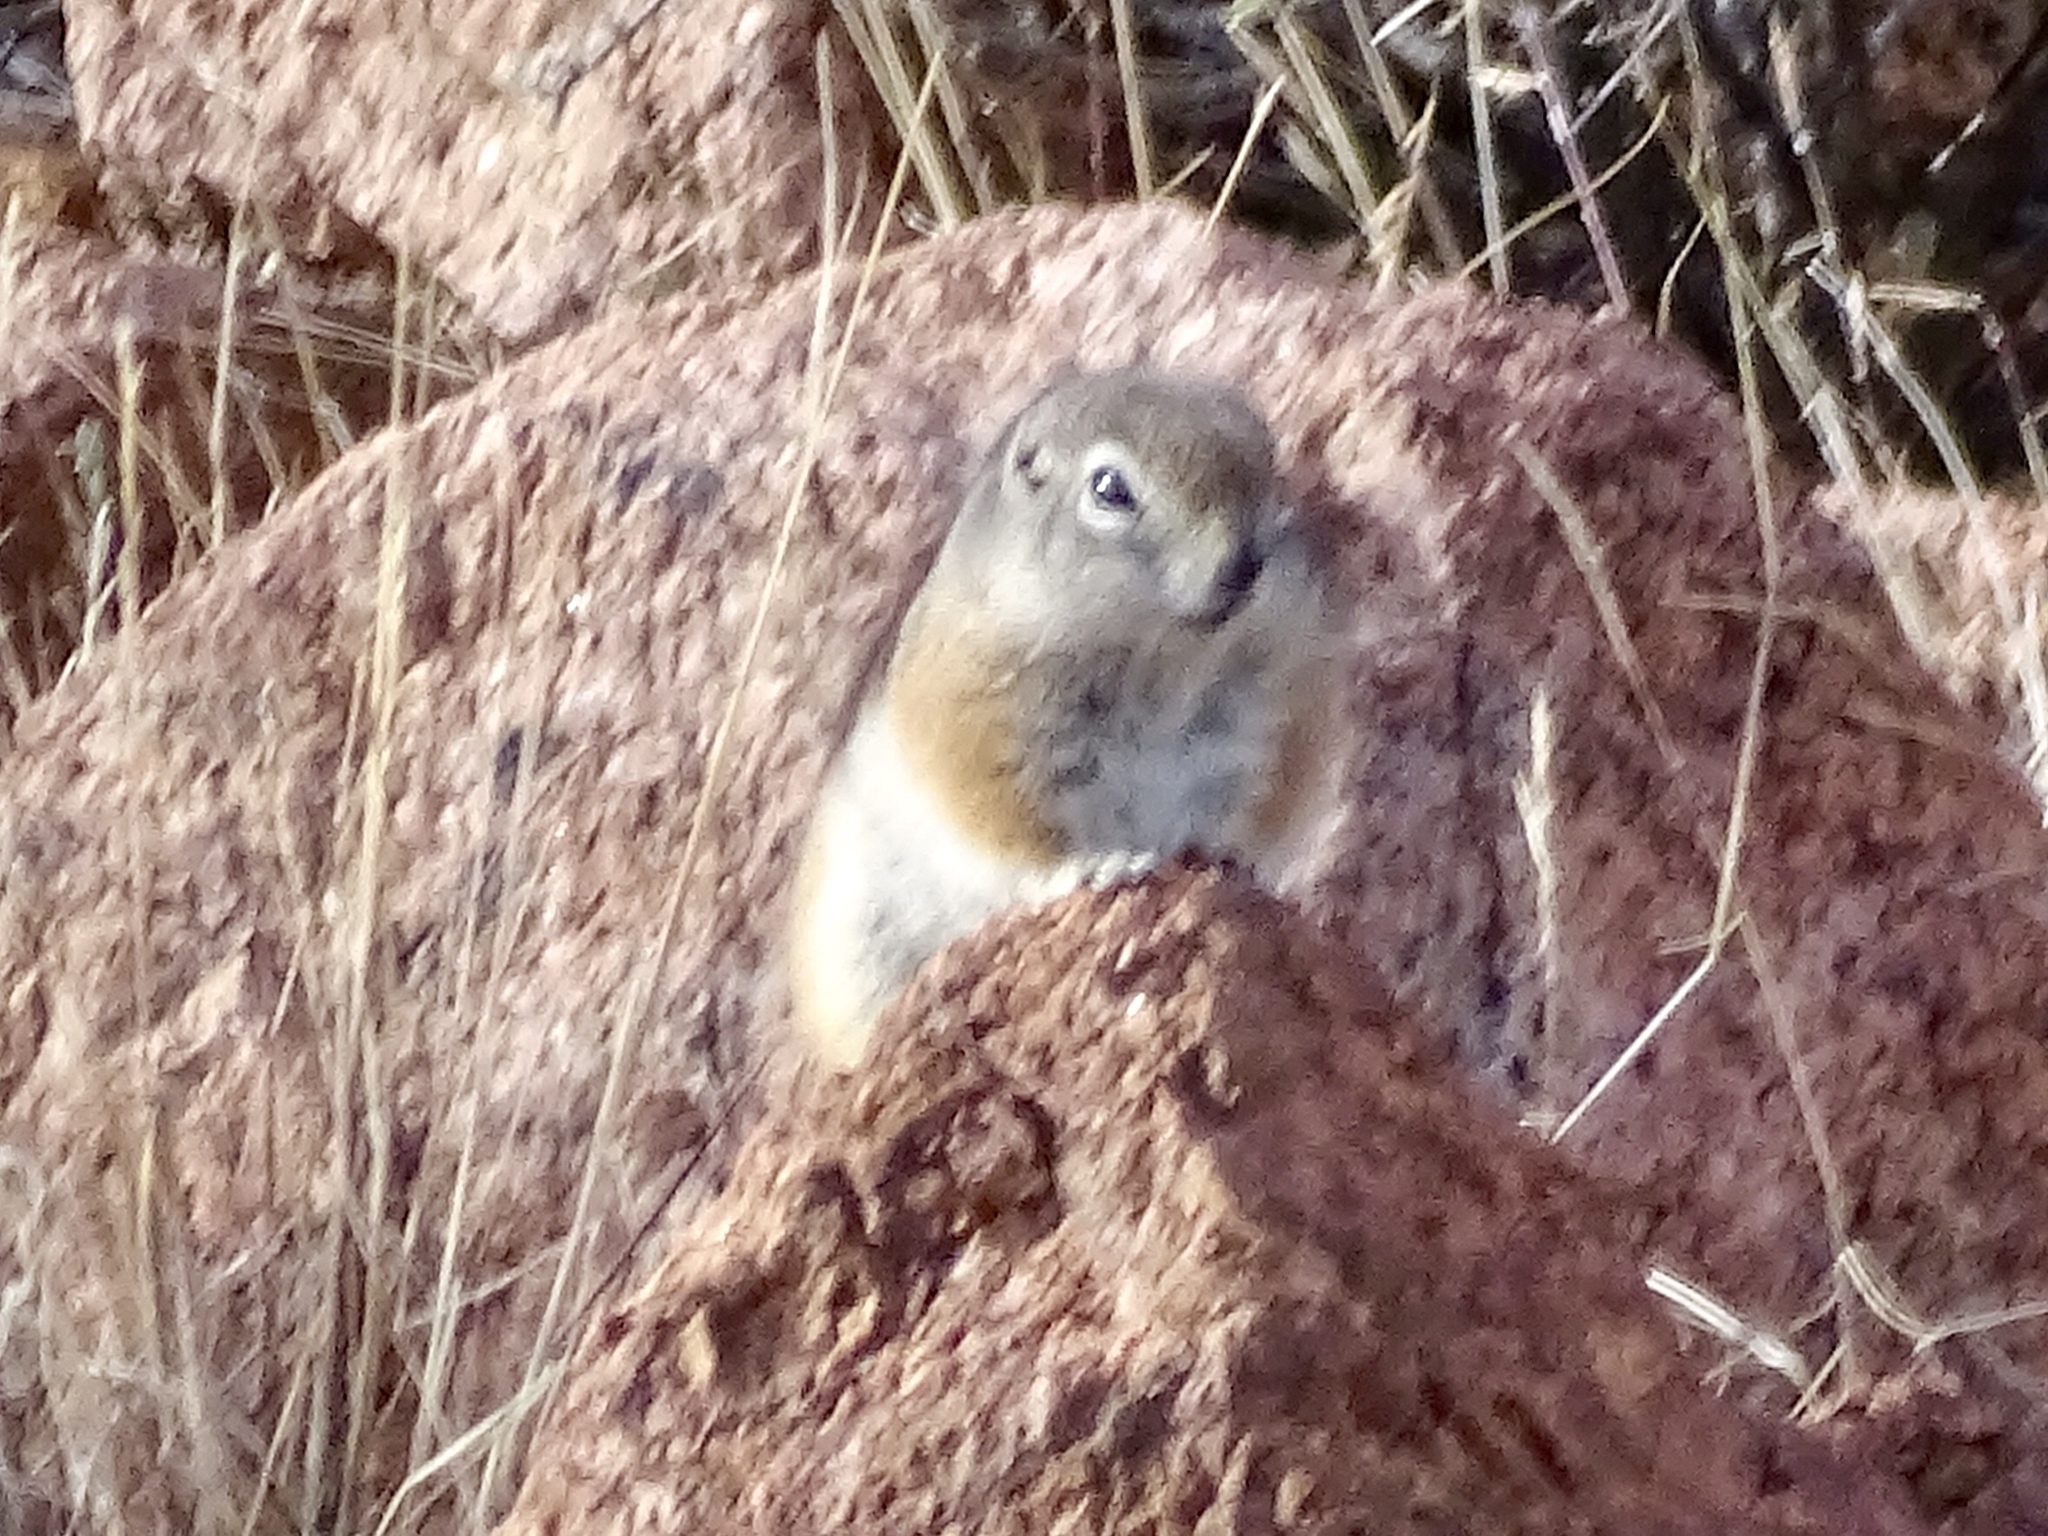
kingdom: Animalia
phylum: Chordata
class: Mammalia
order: Rodentia
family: Sciuridae
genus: Ammospermophilus
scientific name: Ammospermophilus interpres
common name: Texas antelope squirrel
